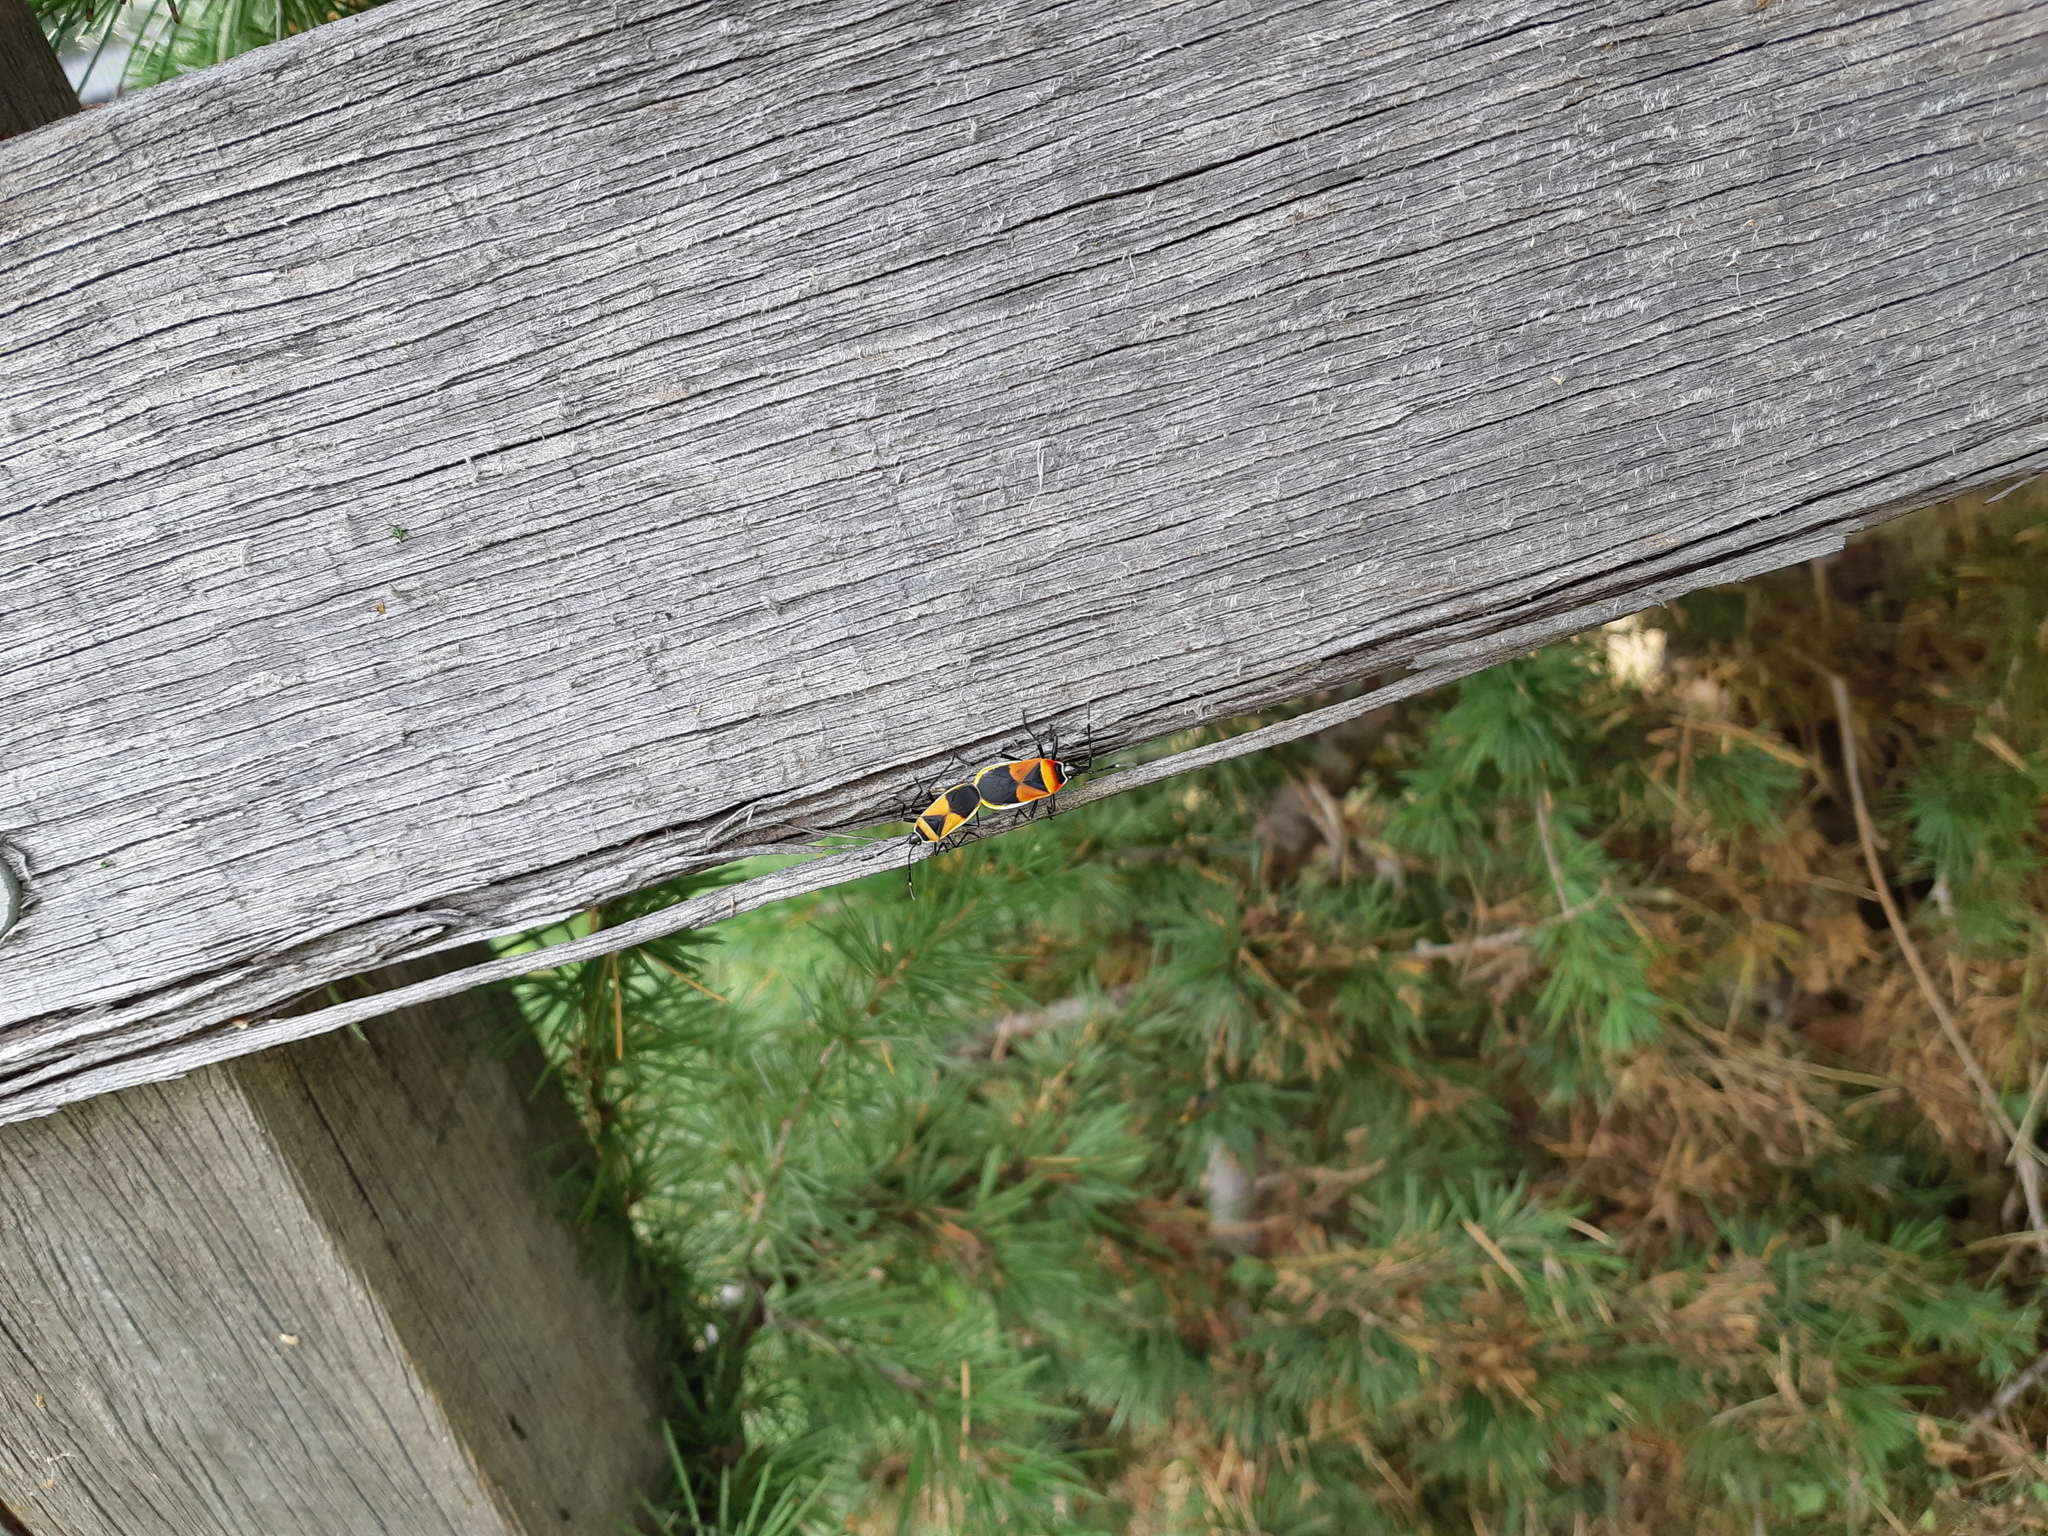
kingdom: Animalia
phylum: Arthropoda
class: Insecta
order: Hemiptera
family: Pyrrhocoridae
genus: Dindymus
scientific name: Dindymus
